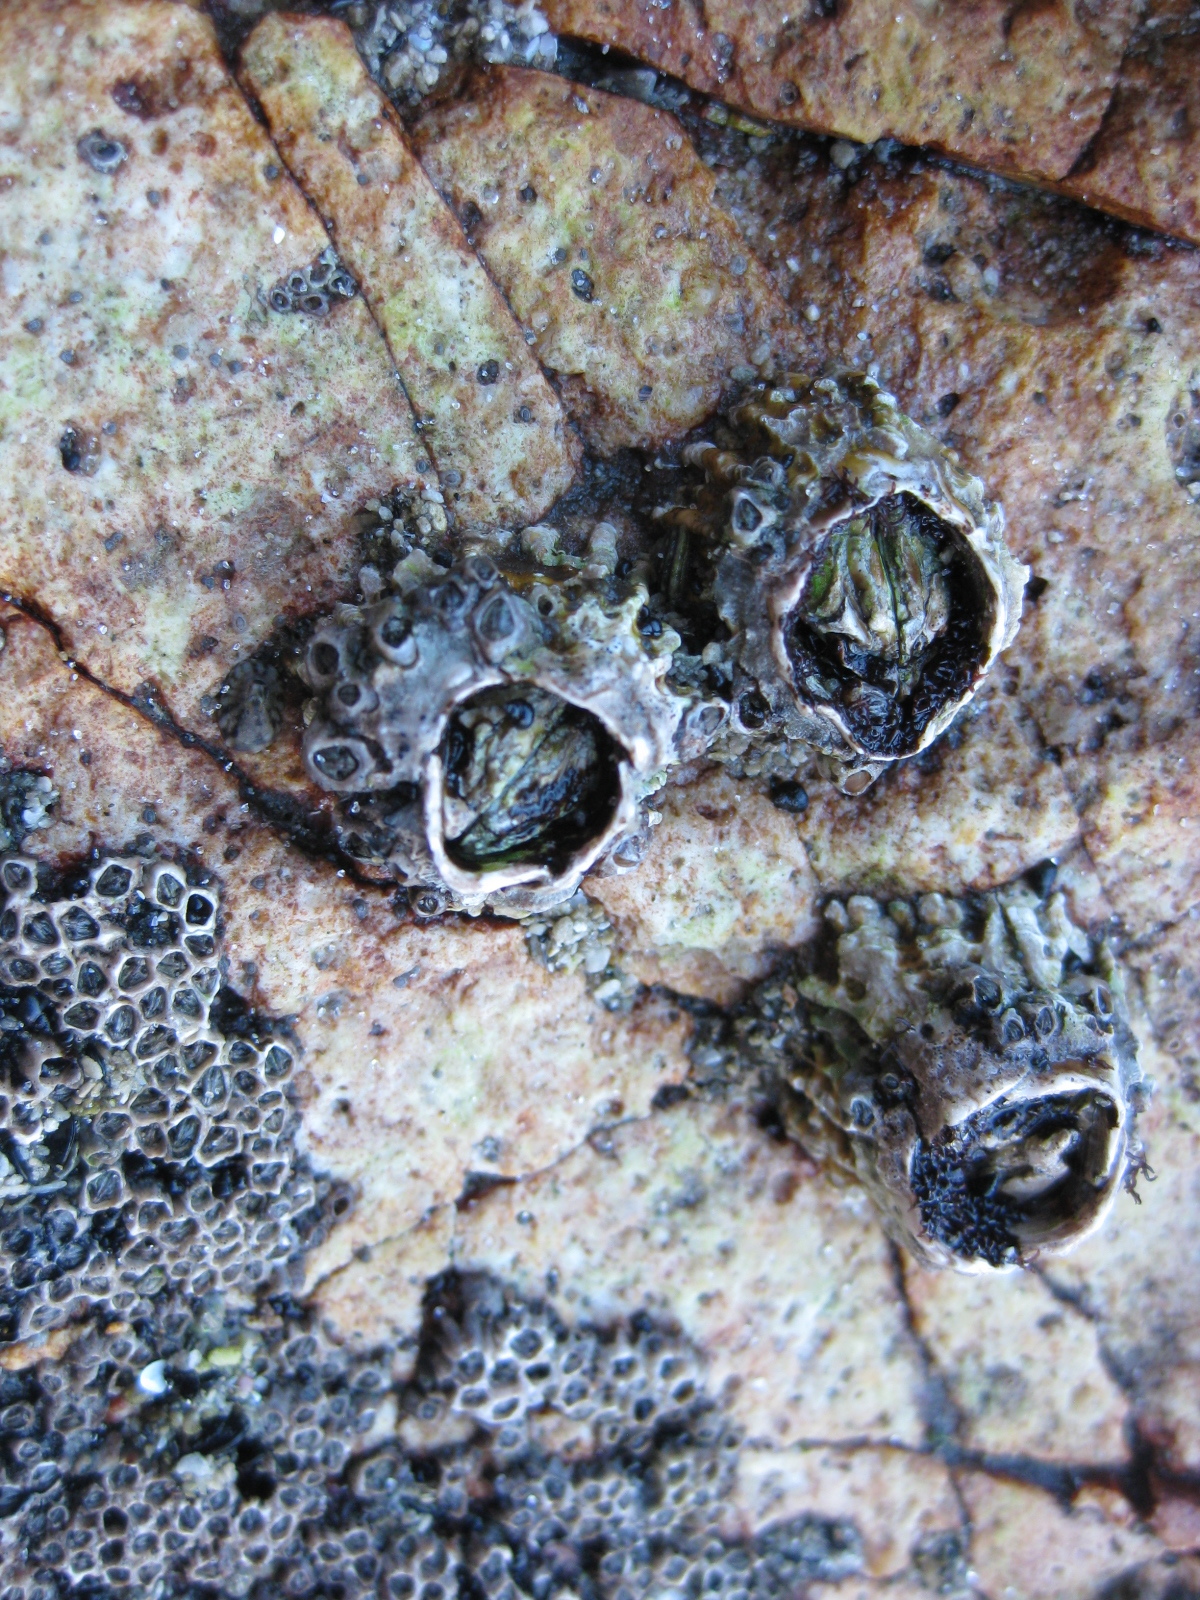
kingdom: Animalia
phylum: Arthropoda
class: Maxillopoda
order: Sessilia
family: Tetraclitidae
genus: Epopella
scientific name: Epopella plicata
